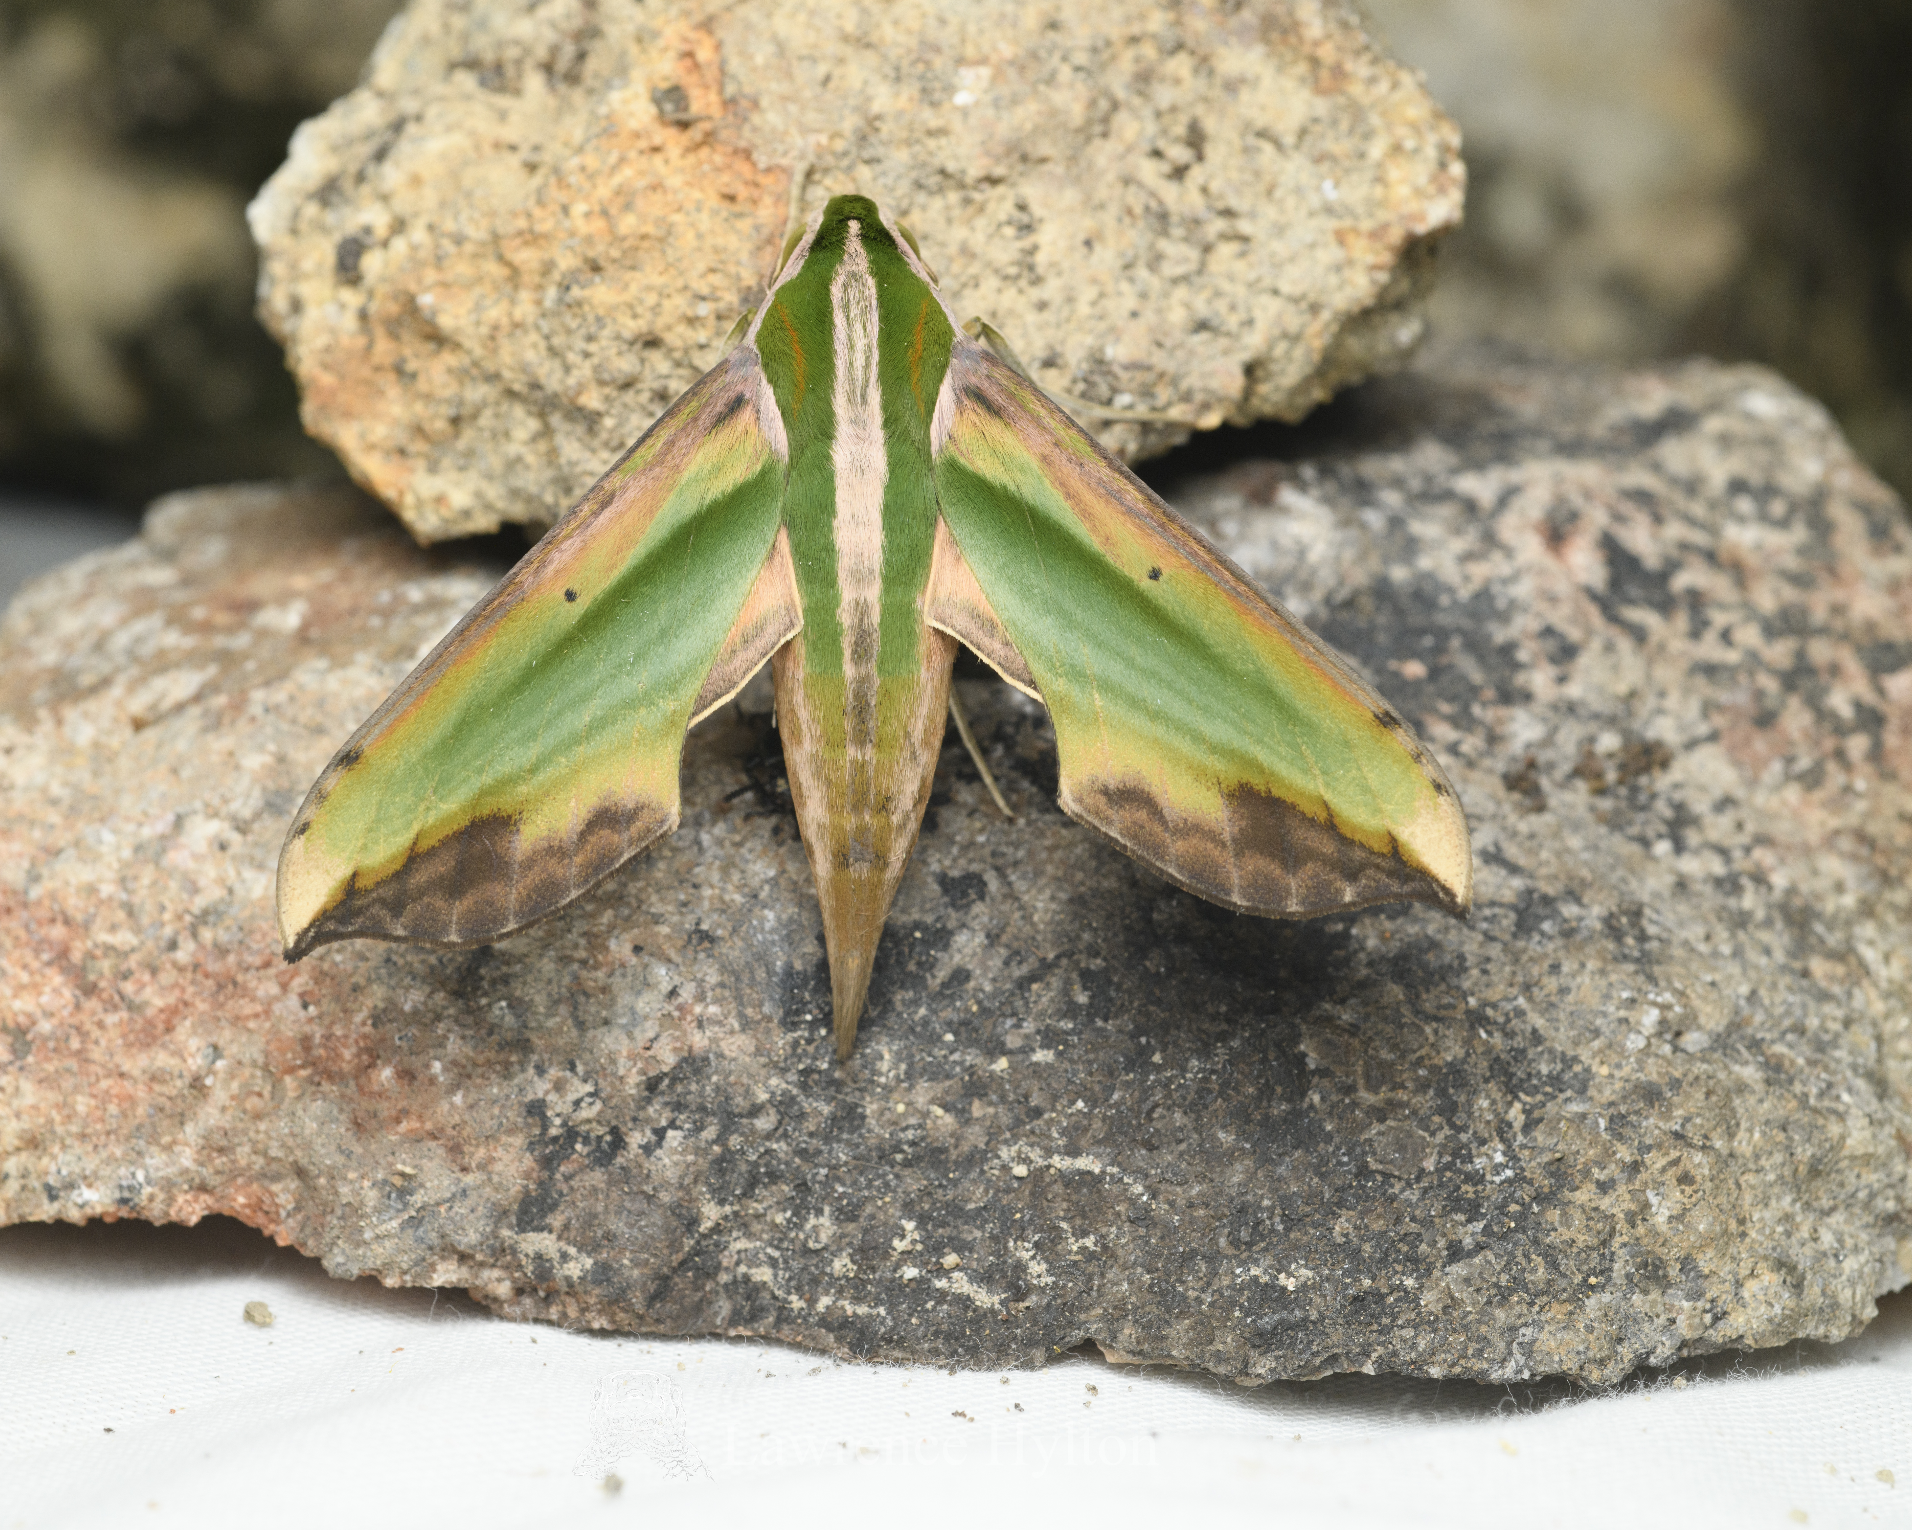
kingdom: Animalia
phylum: Arthropoda
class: Insecta
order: Lepidoptera
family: Sphingidae
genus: Pergesa
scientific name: Pergesa acteus
